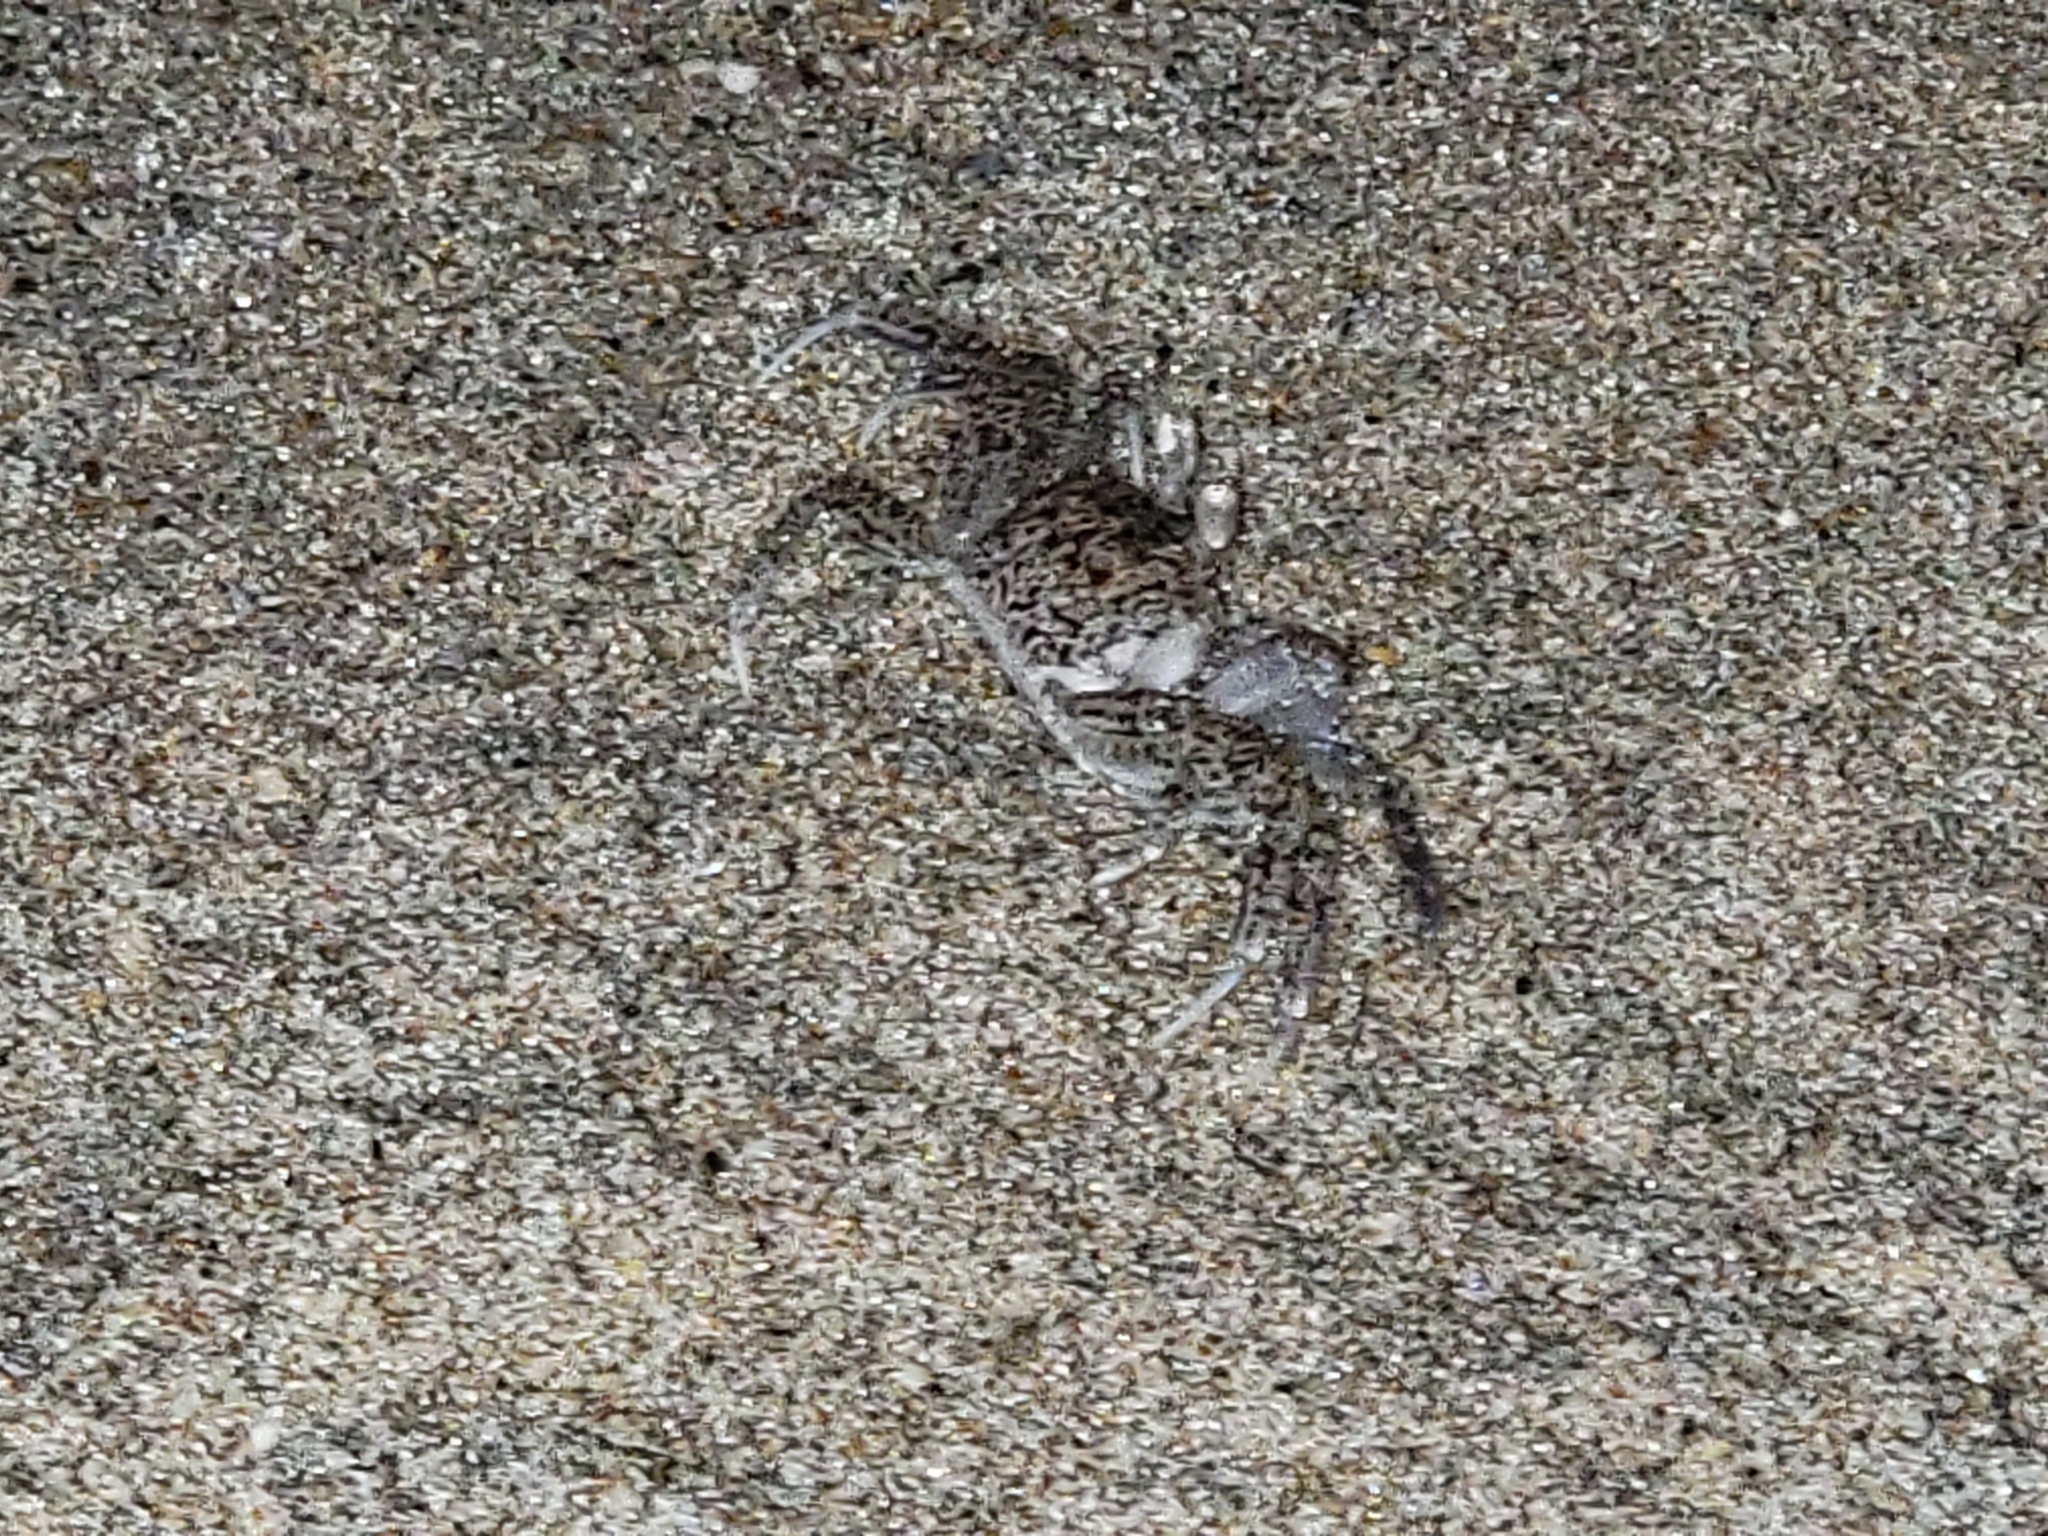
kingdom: Animalia
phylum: Arthropoda
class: Malacostraca
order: Decapoda
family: Ocypodidae
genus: Ocypode
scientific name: Ocypode quadrata
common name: Ghost crab
